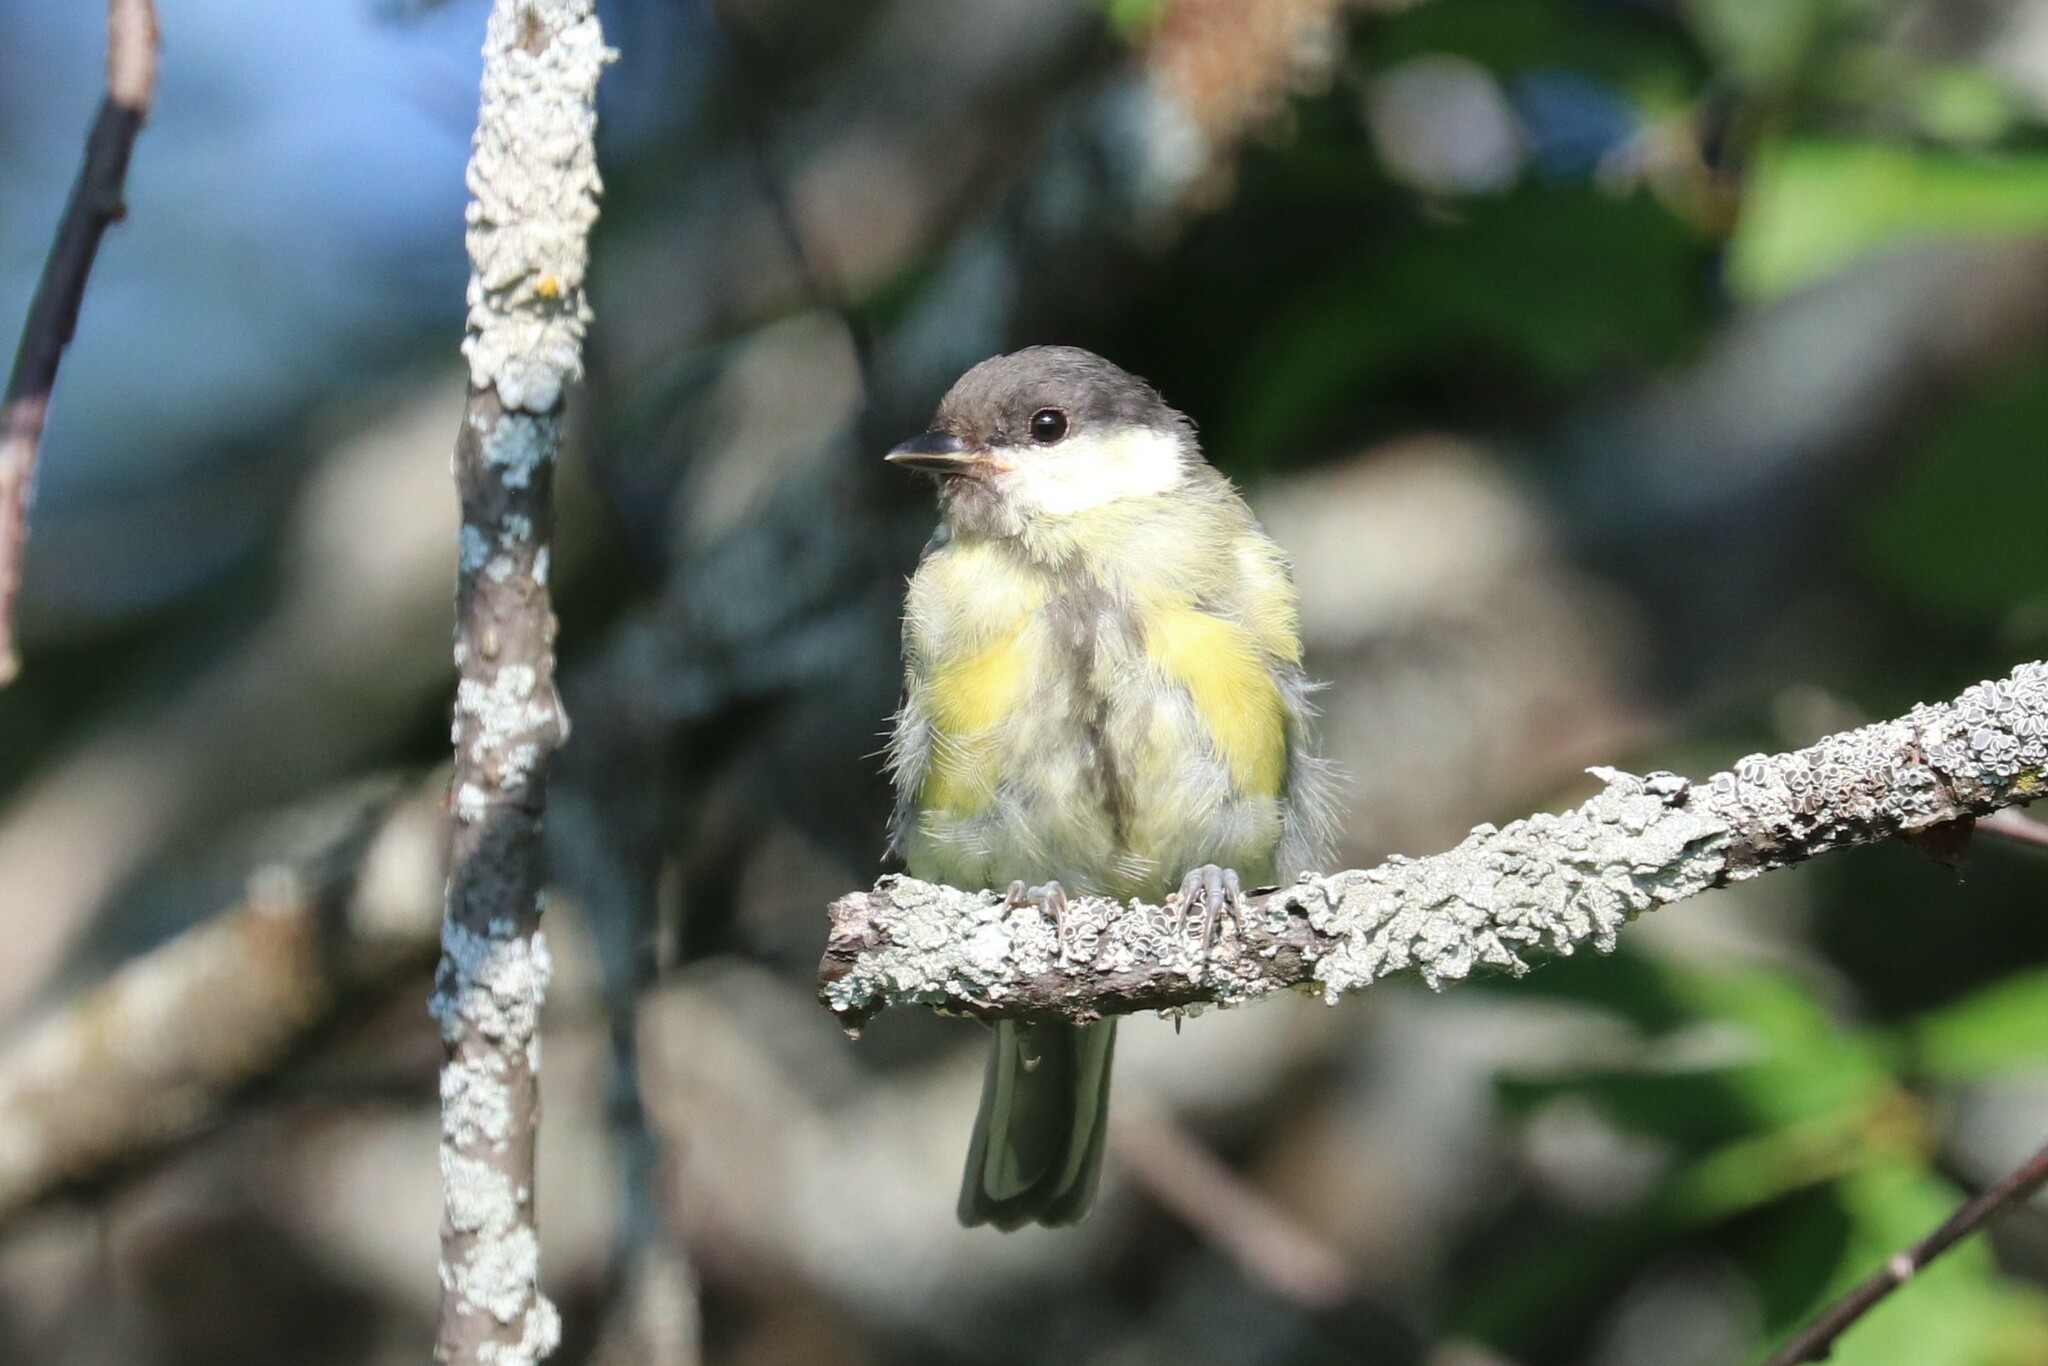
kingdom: Animalia
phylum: Chordata
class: Aves
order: Passeriformes
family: Paridae
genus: Parus
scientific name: Parus major
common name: Great tit
